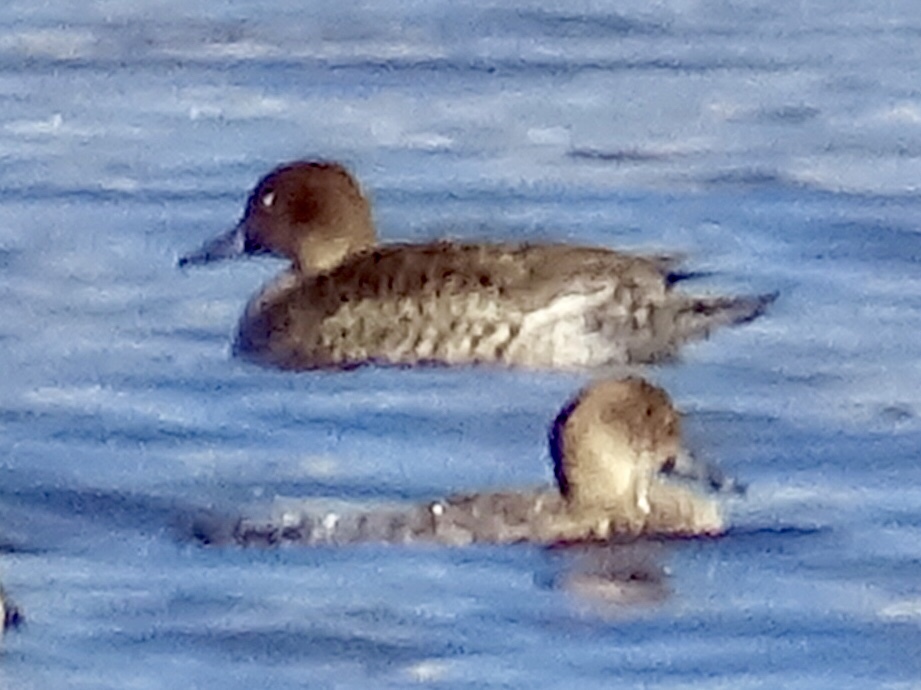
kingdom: Animalia
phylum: Chordata
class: Aves
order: Anseriformes
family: Anatidae
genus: Anas
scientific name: Anas acuta
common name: Northern pintail
